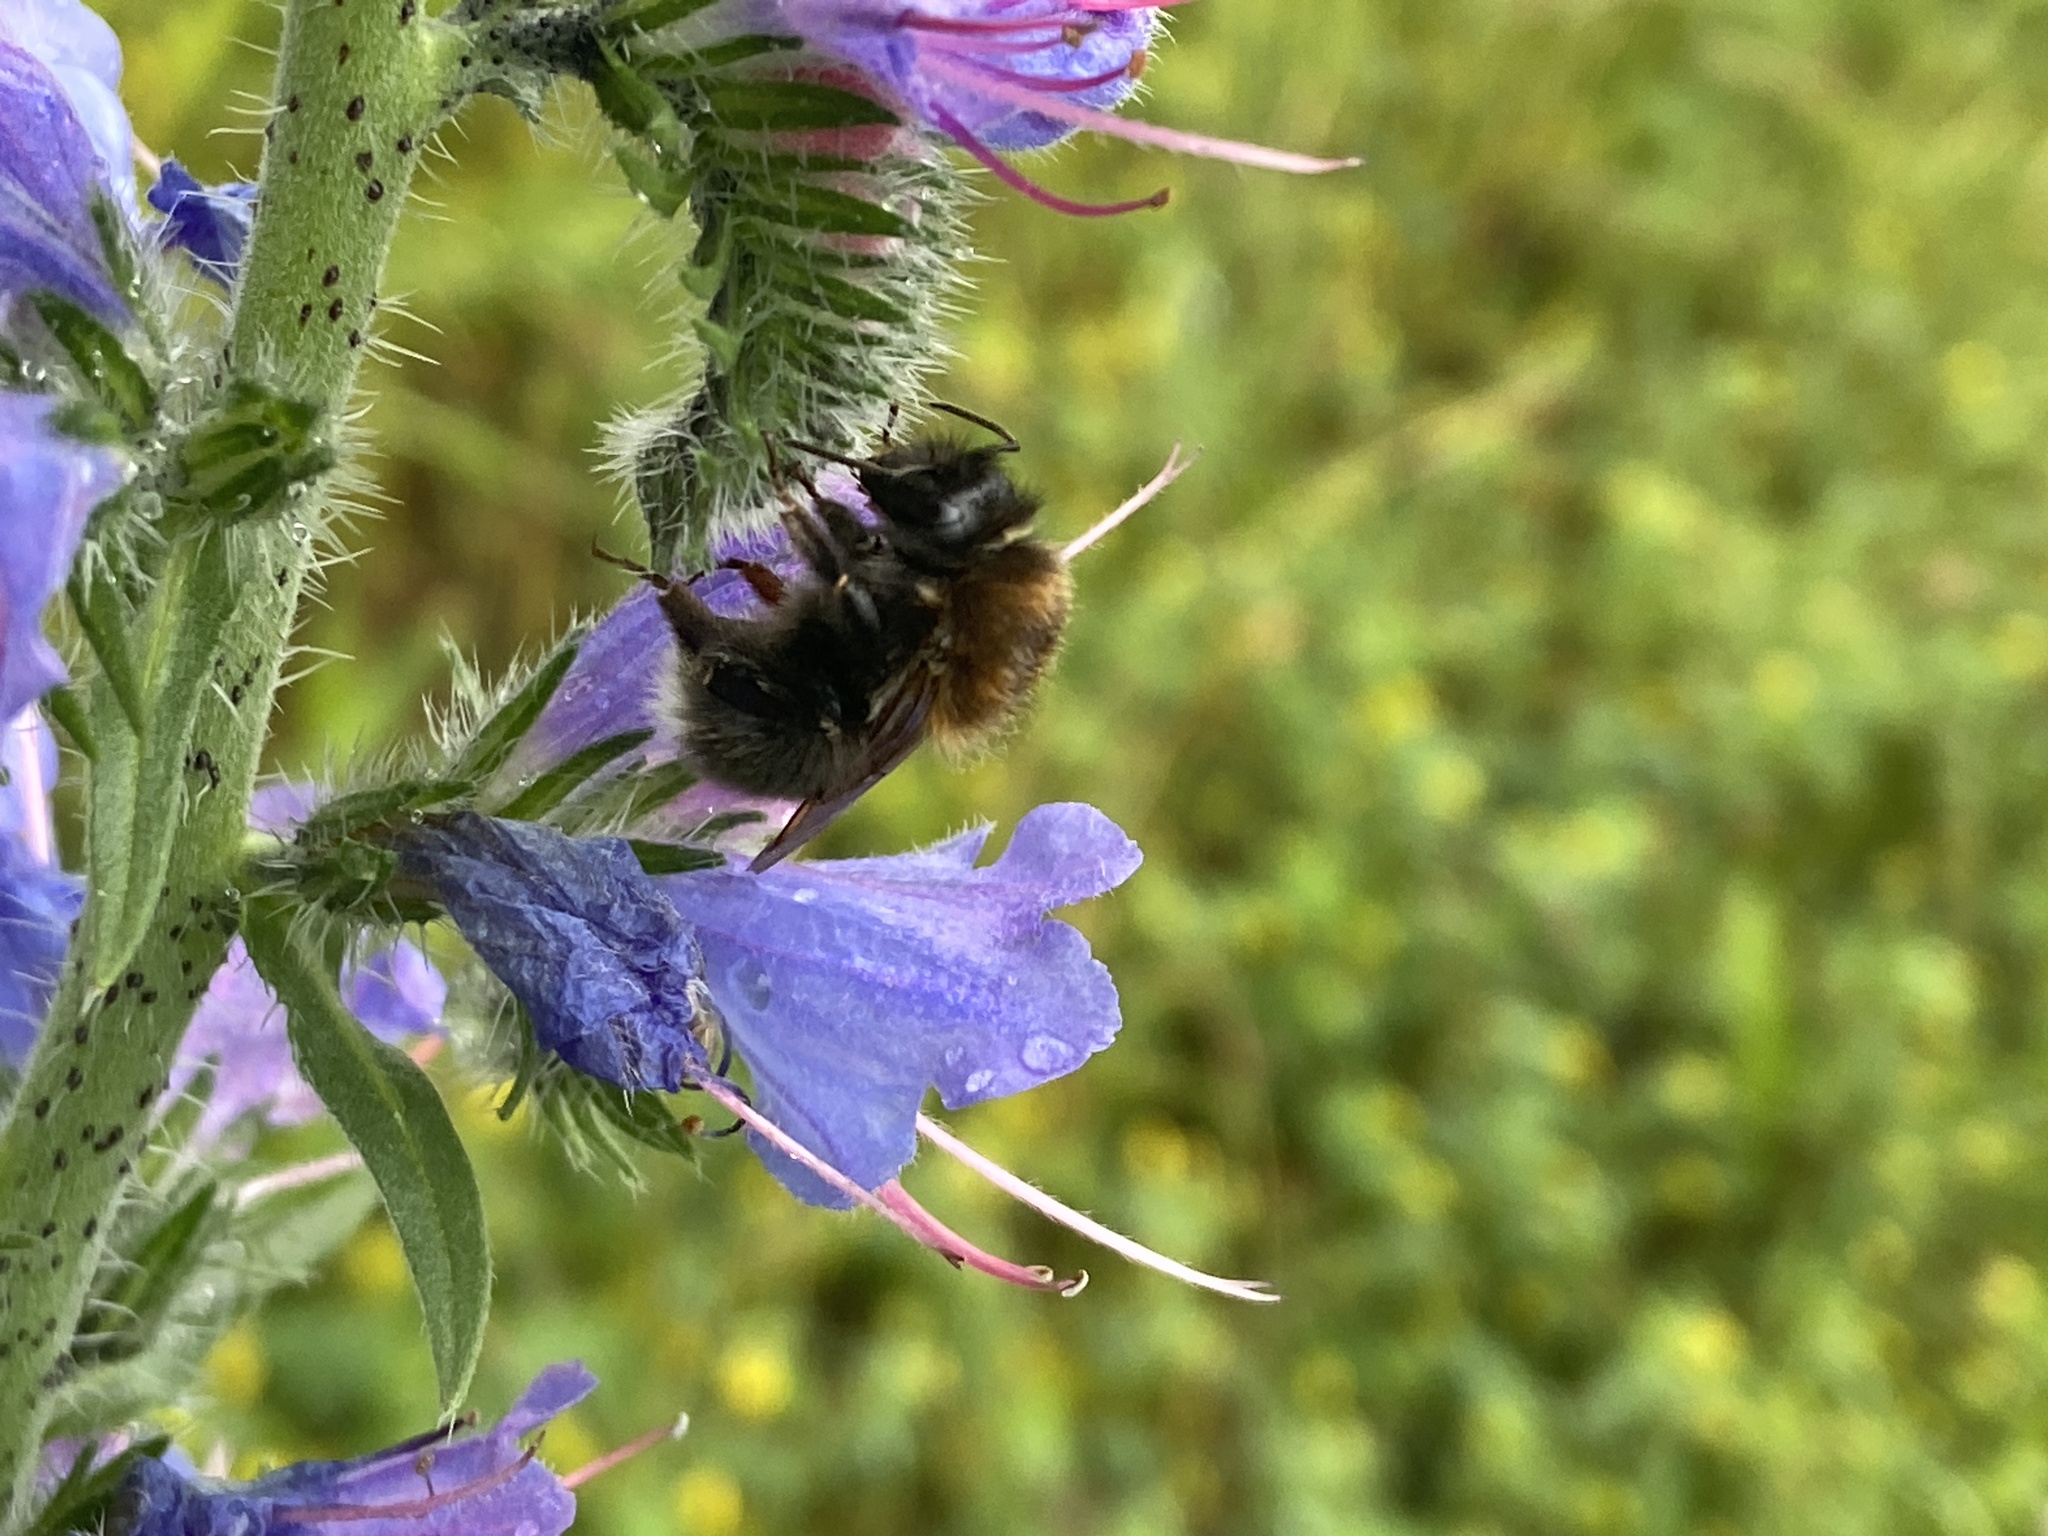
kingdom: Animalia
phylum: Arthropoda
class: Insecta
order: Hymenoptera
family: Apidae
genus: Bombus
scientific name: Bombus hypnorum
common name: New garden bumblebee
